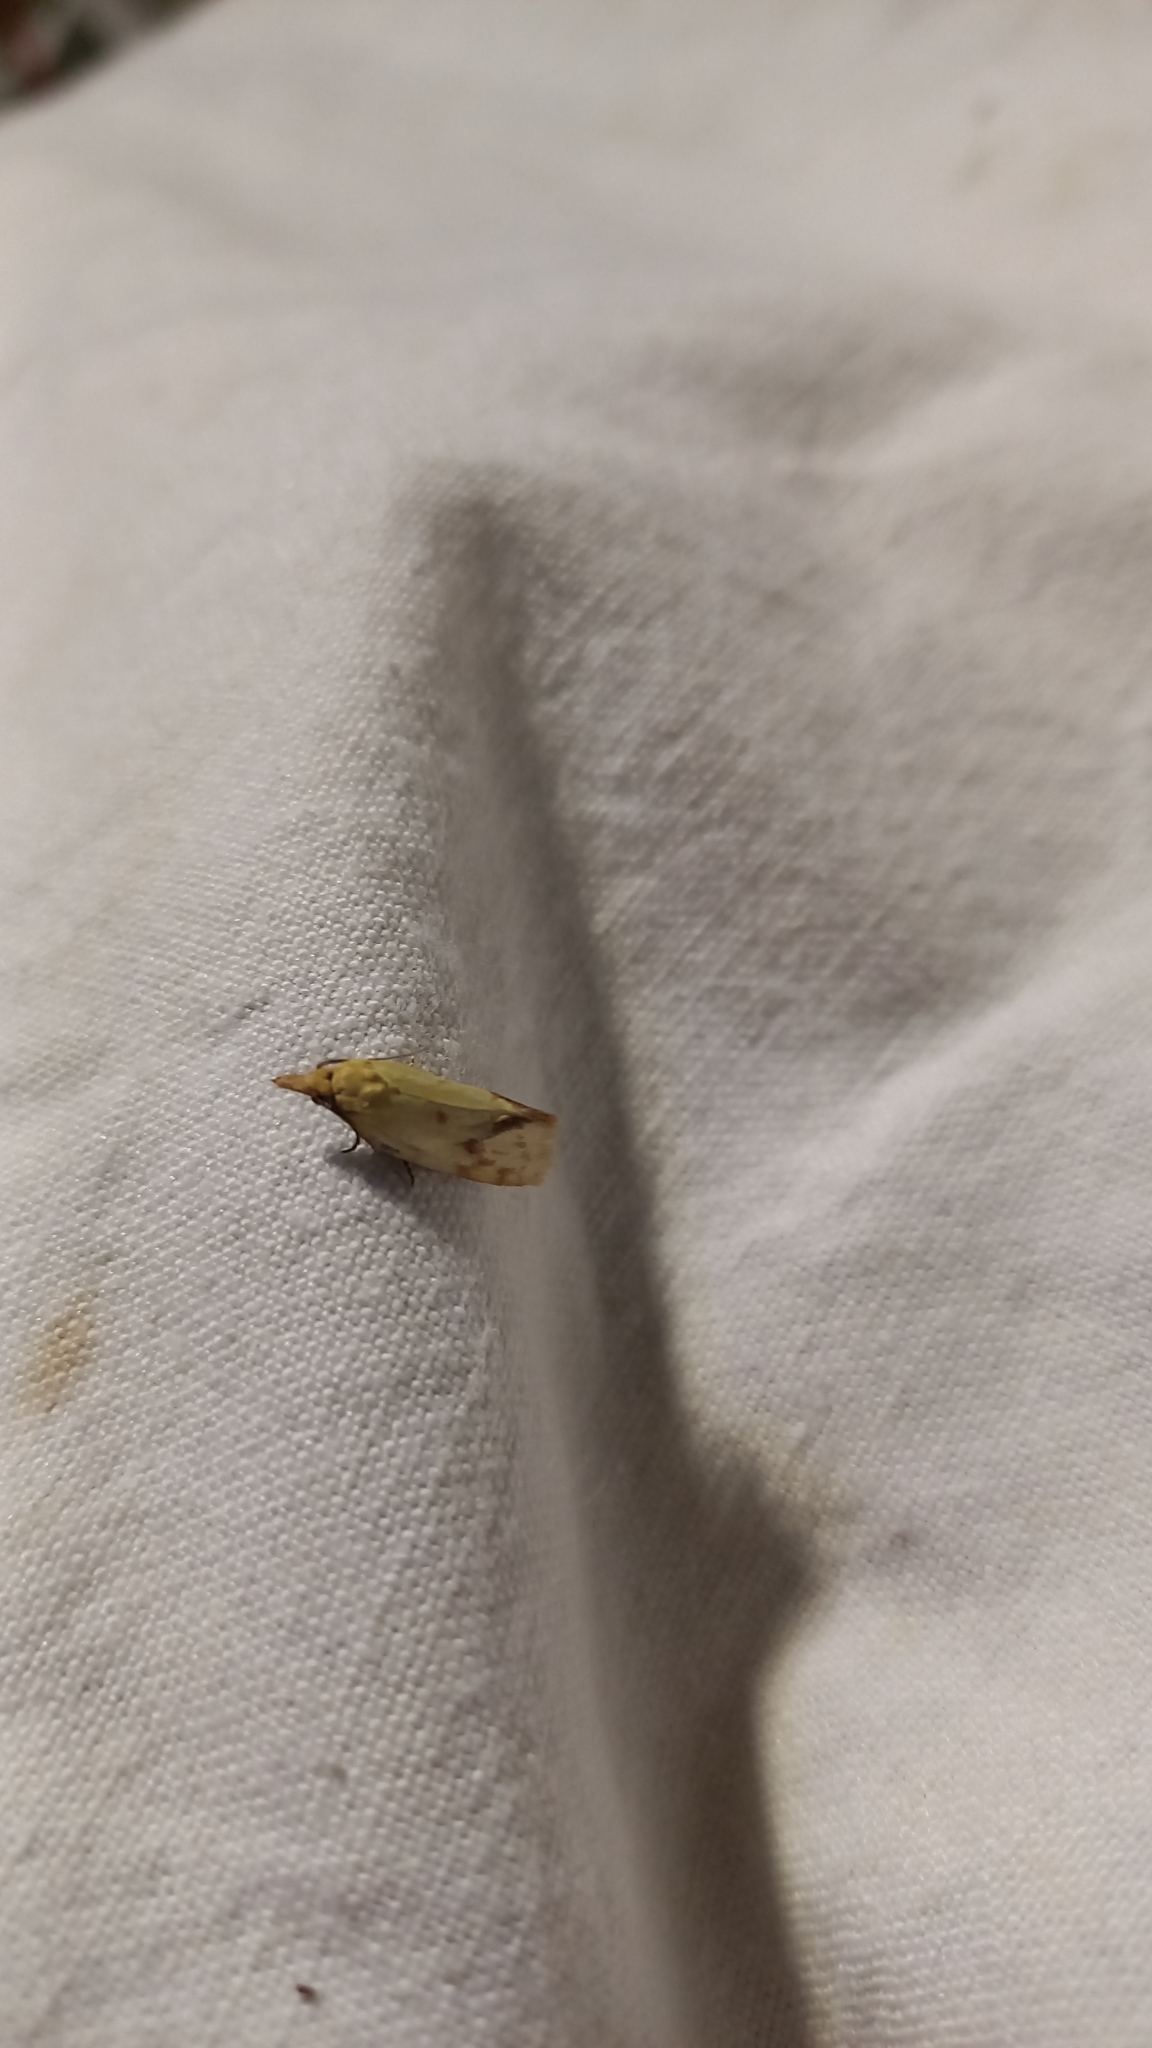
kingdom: Animalia
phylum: Arthropoda
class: Insecta
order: Lepidoptera
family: Tortricidae
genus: Agapeta
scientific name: Agapeta hamana
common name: Common yellow conch
